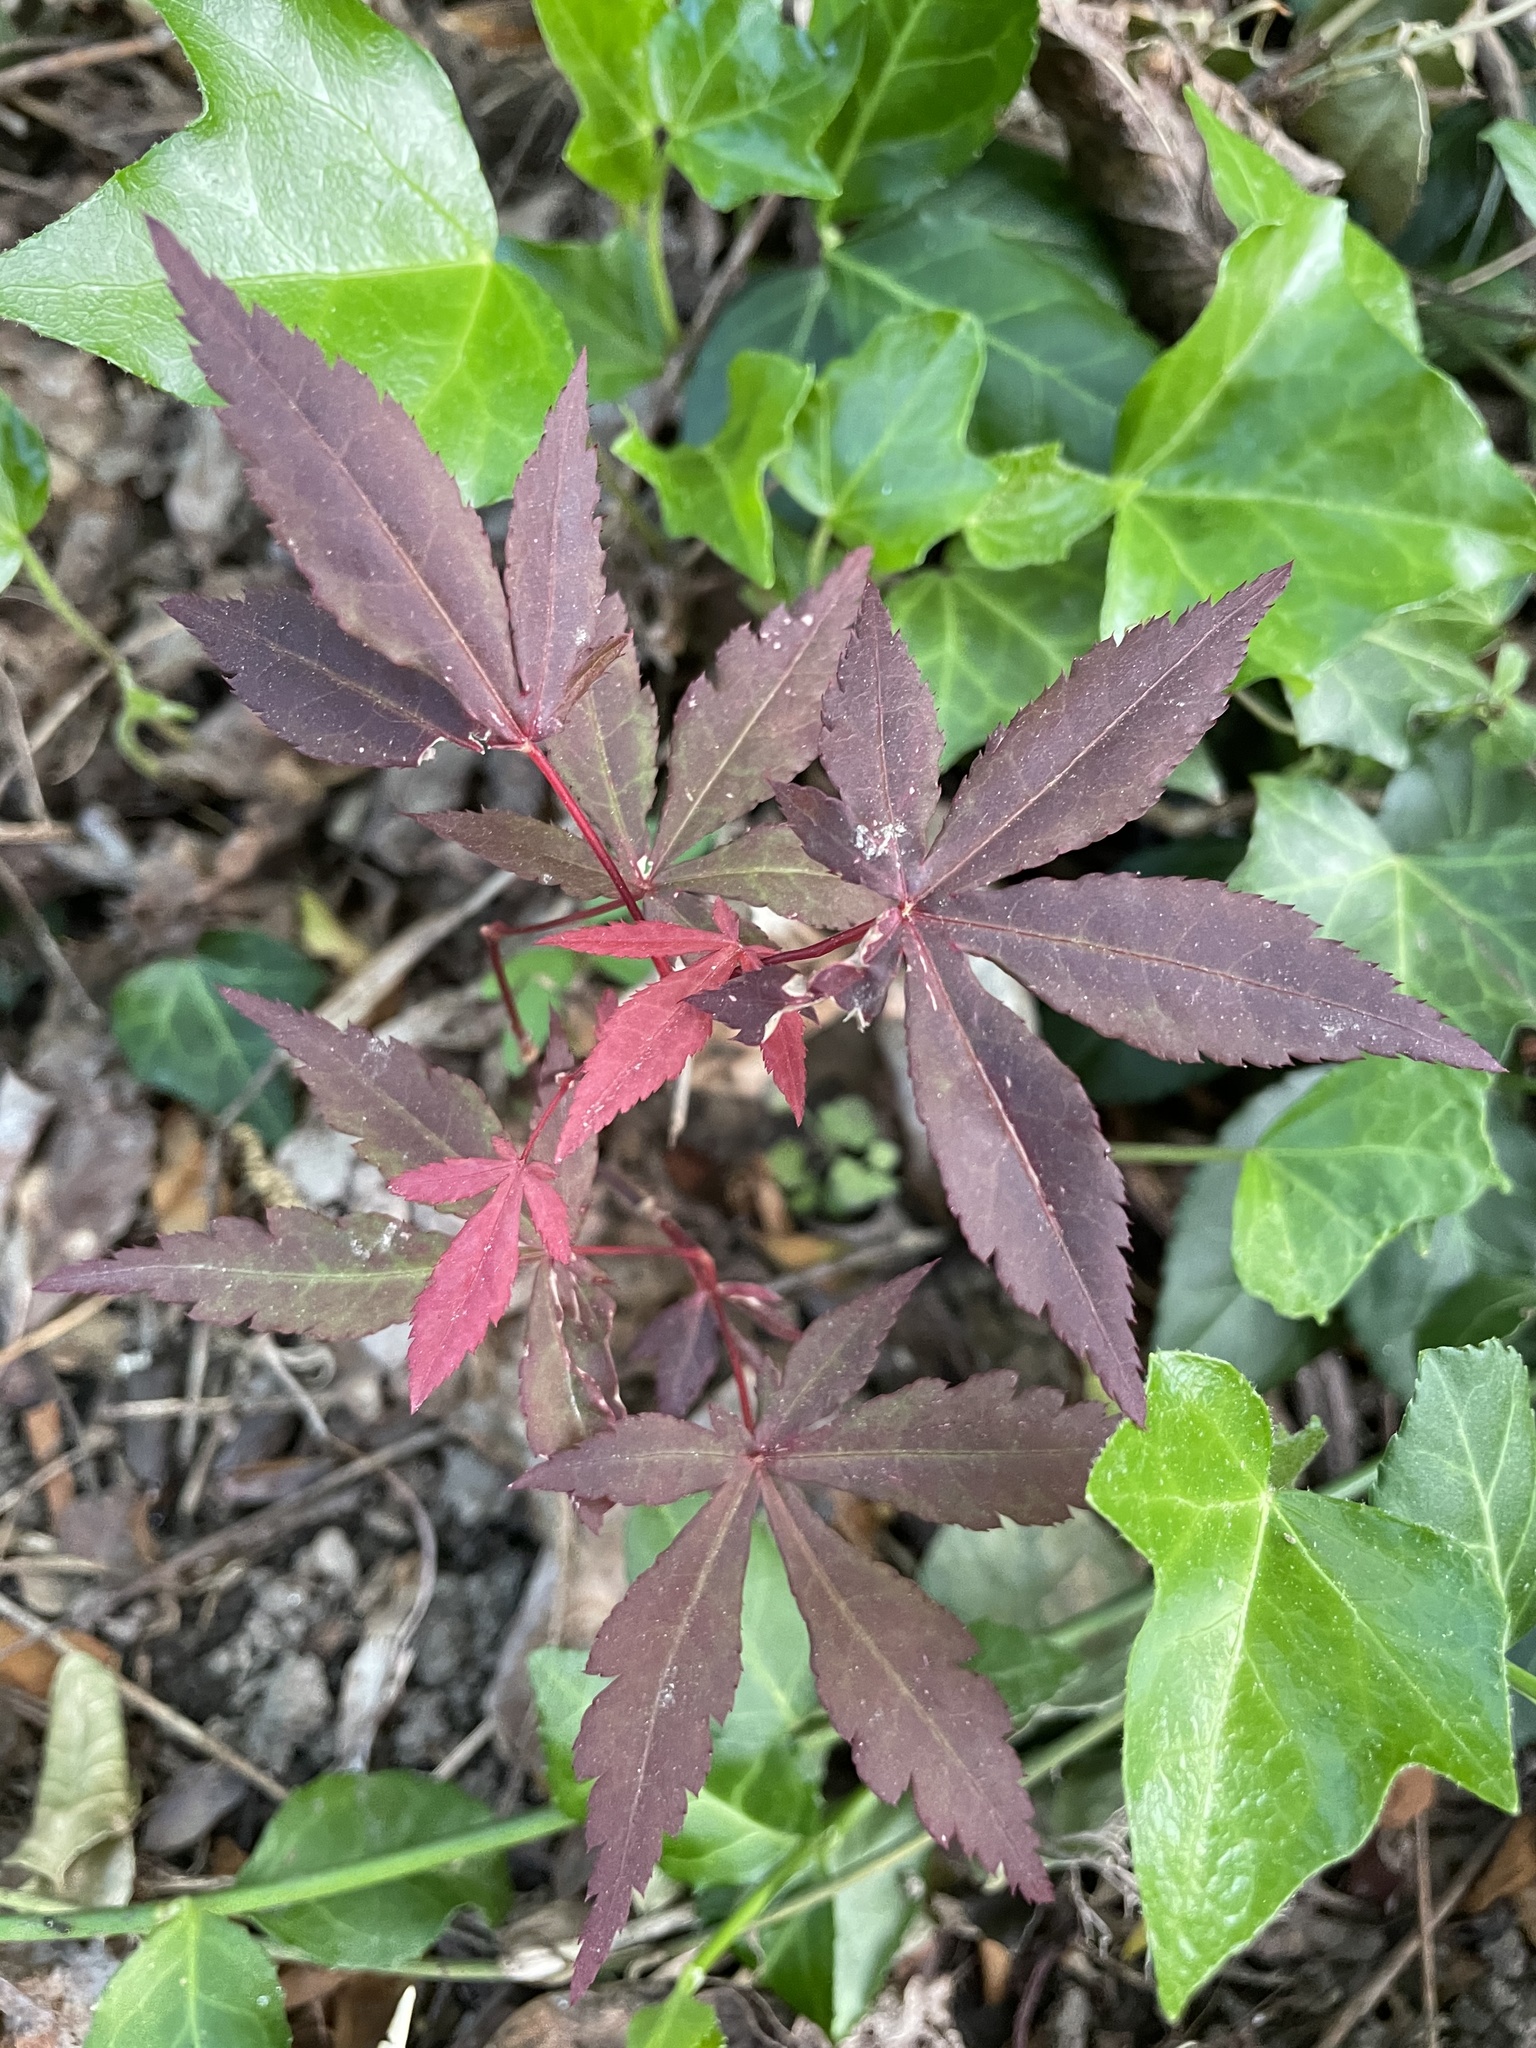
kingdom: Plantae
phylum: Tracheophyta
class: Magnoliopsida
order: Sapindales
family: Sapindaceae
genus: Acer
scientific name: Acer palmatum
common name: Japanese maple
